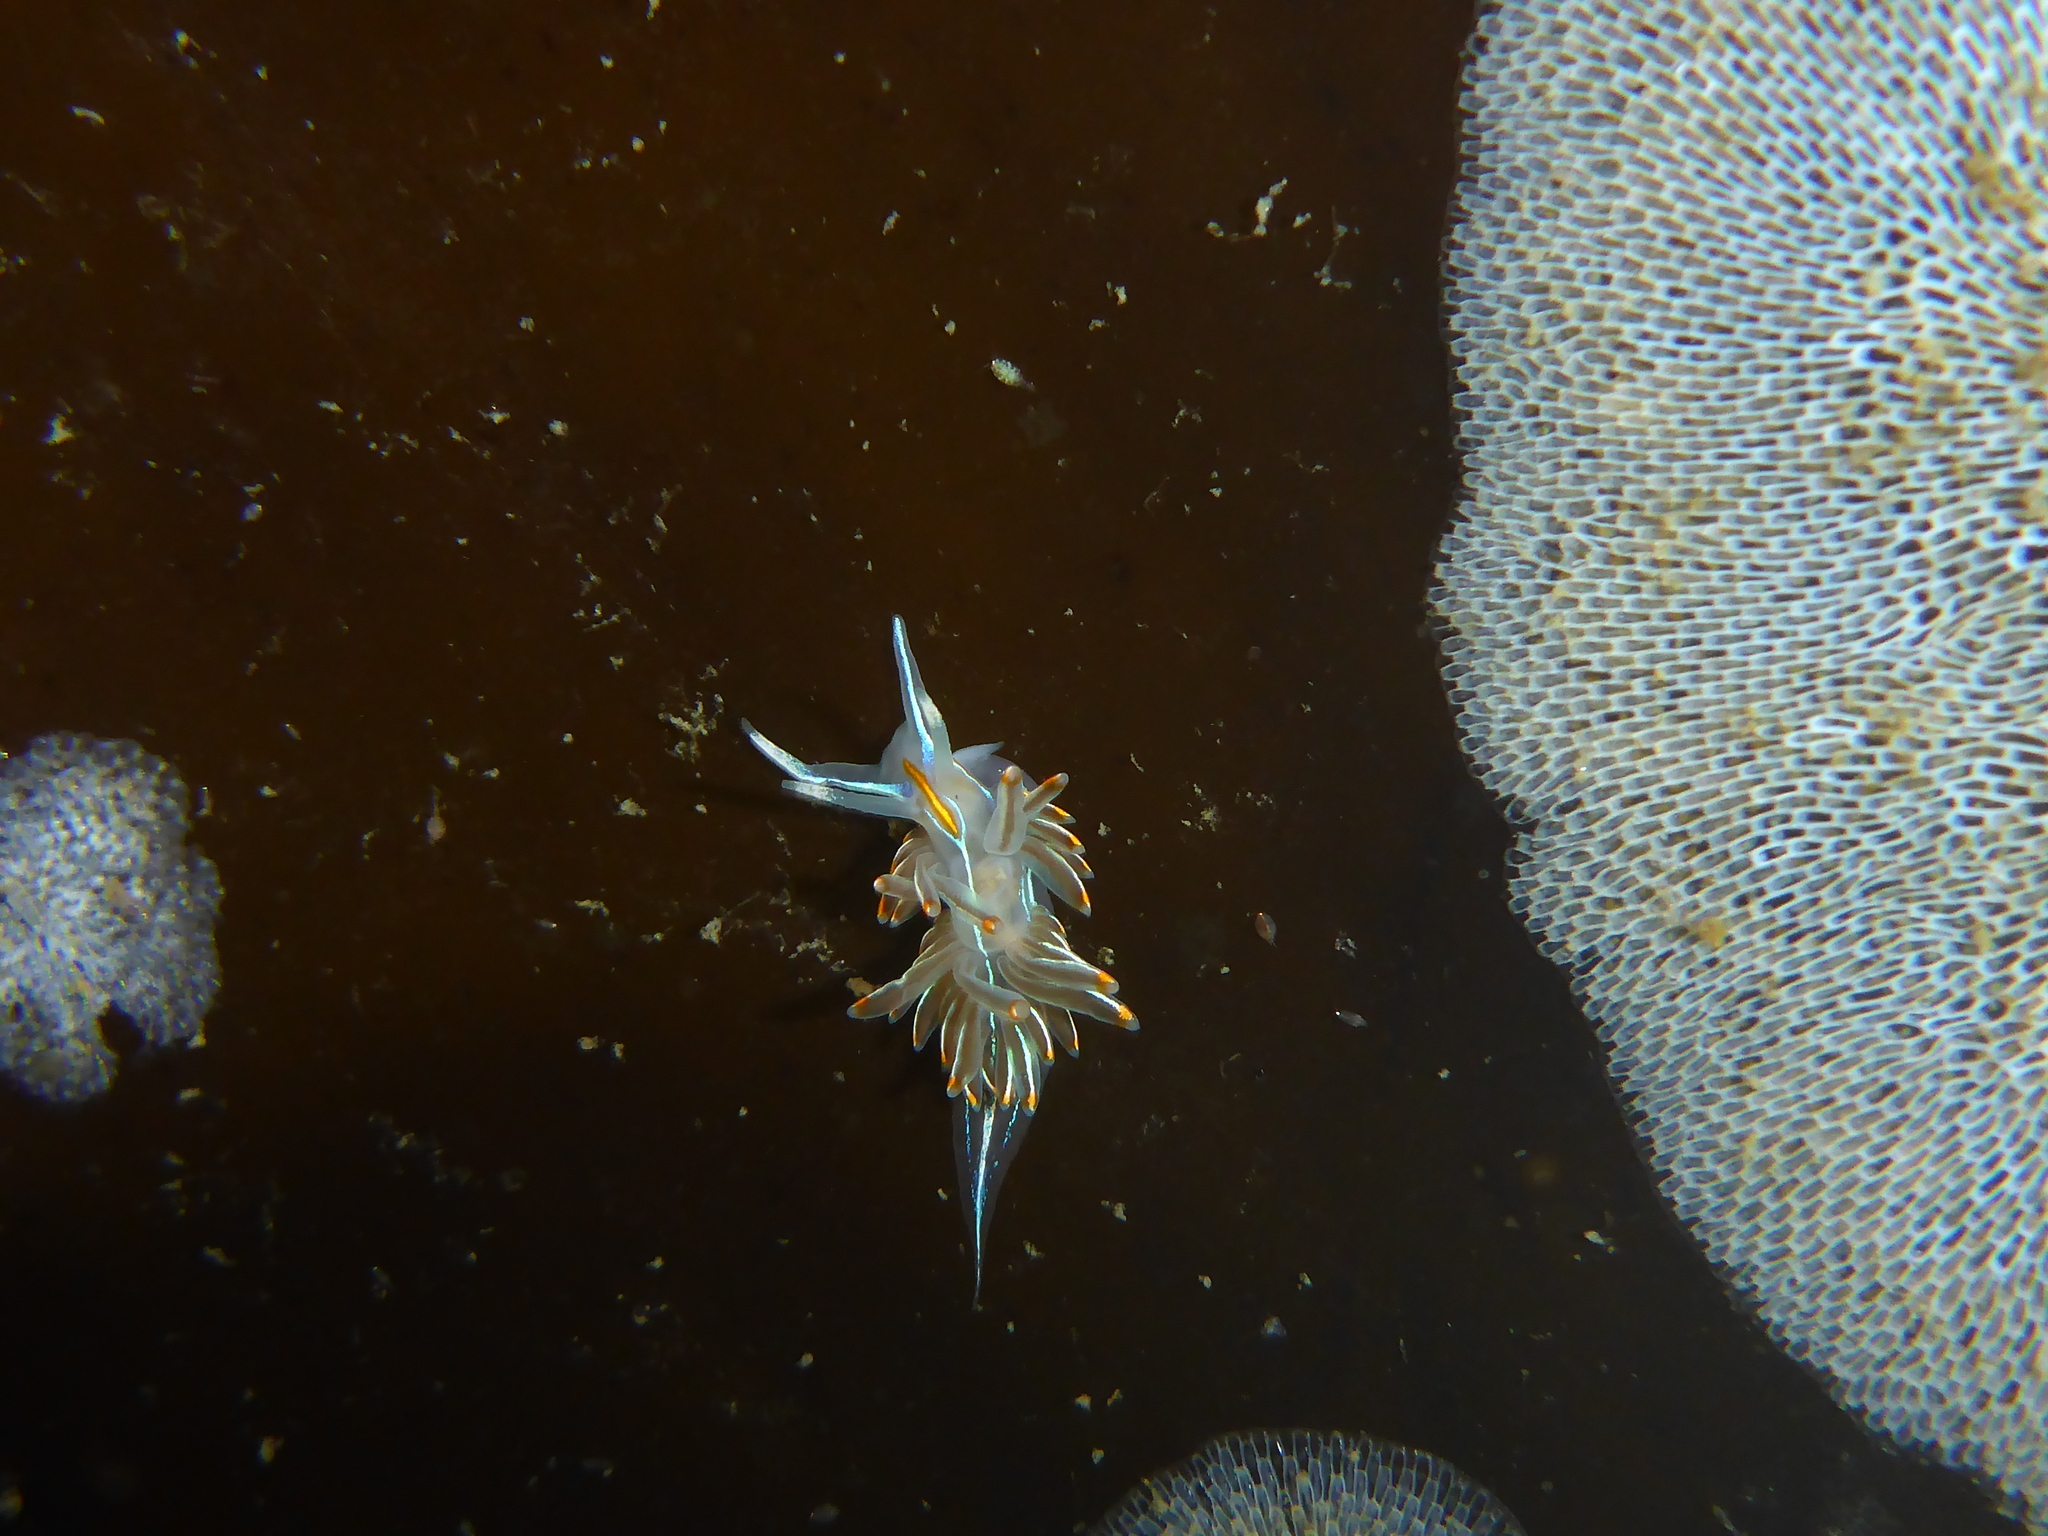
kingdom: Animalia
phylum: Mollusca
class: Gastropoda
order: Nudibranchia
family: Myrrhinidae
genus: Hermissenda
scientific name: Hermissenda crassicornis
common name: Hermissenda
